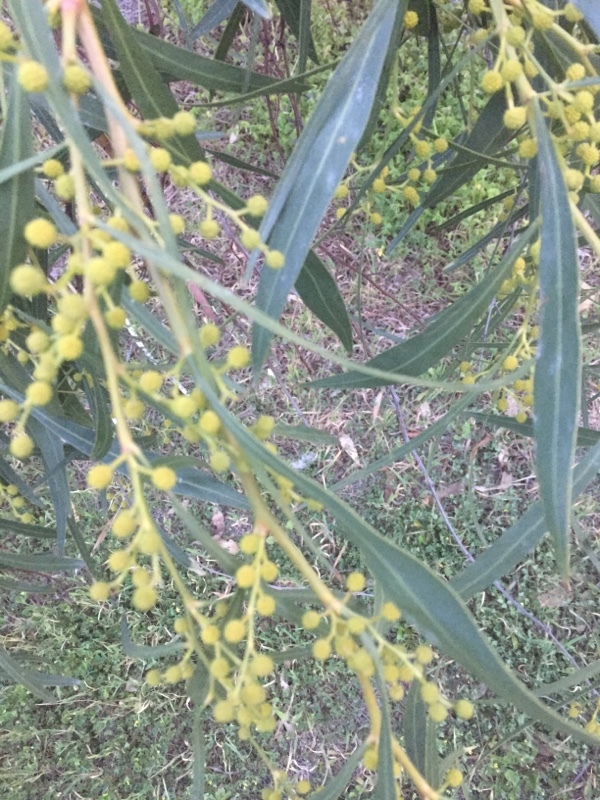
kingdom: Plantae
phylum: Tracheophyta
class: Magnoliopsida
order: Fabales
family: Fabaceae
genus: Acacia
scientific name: Acacia saligna
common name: Orange wattle
